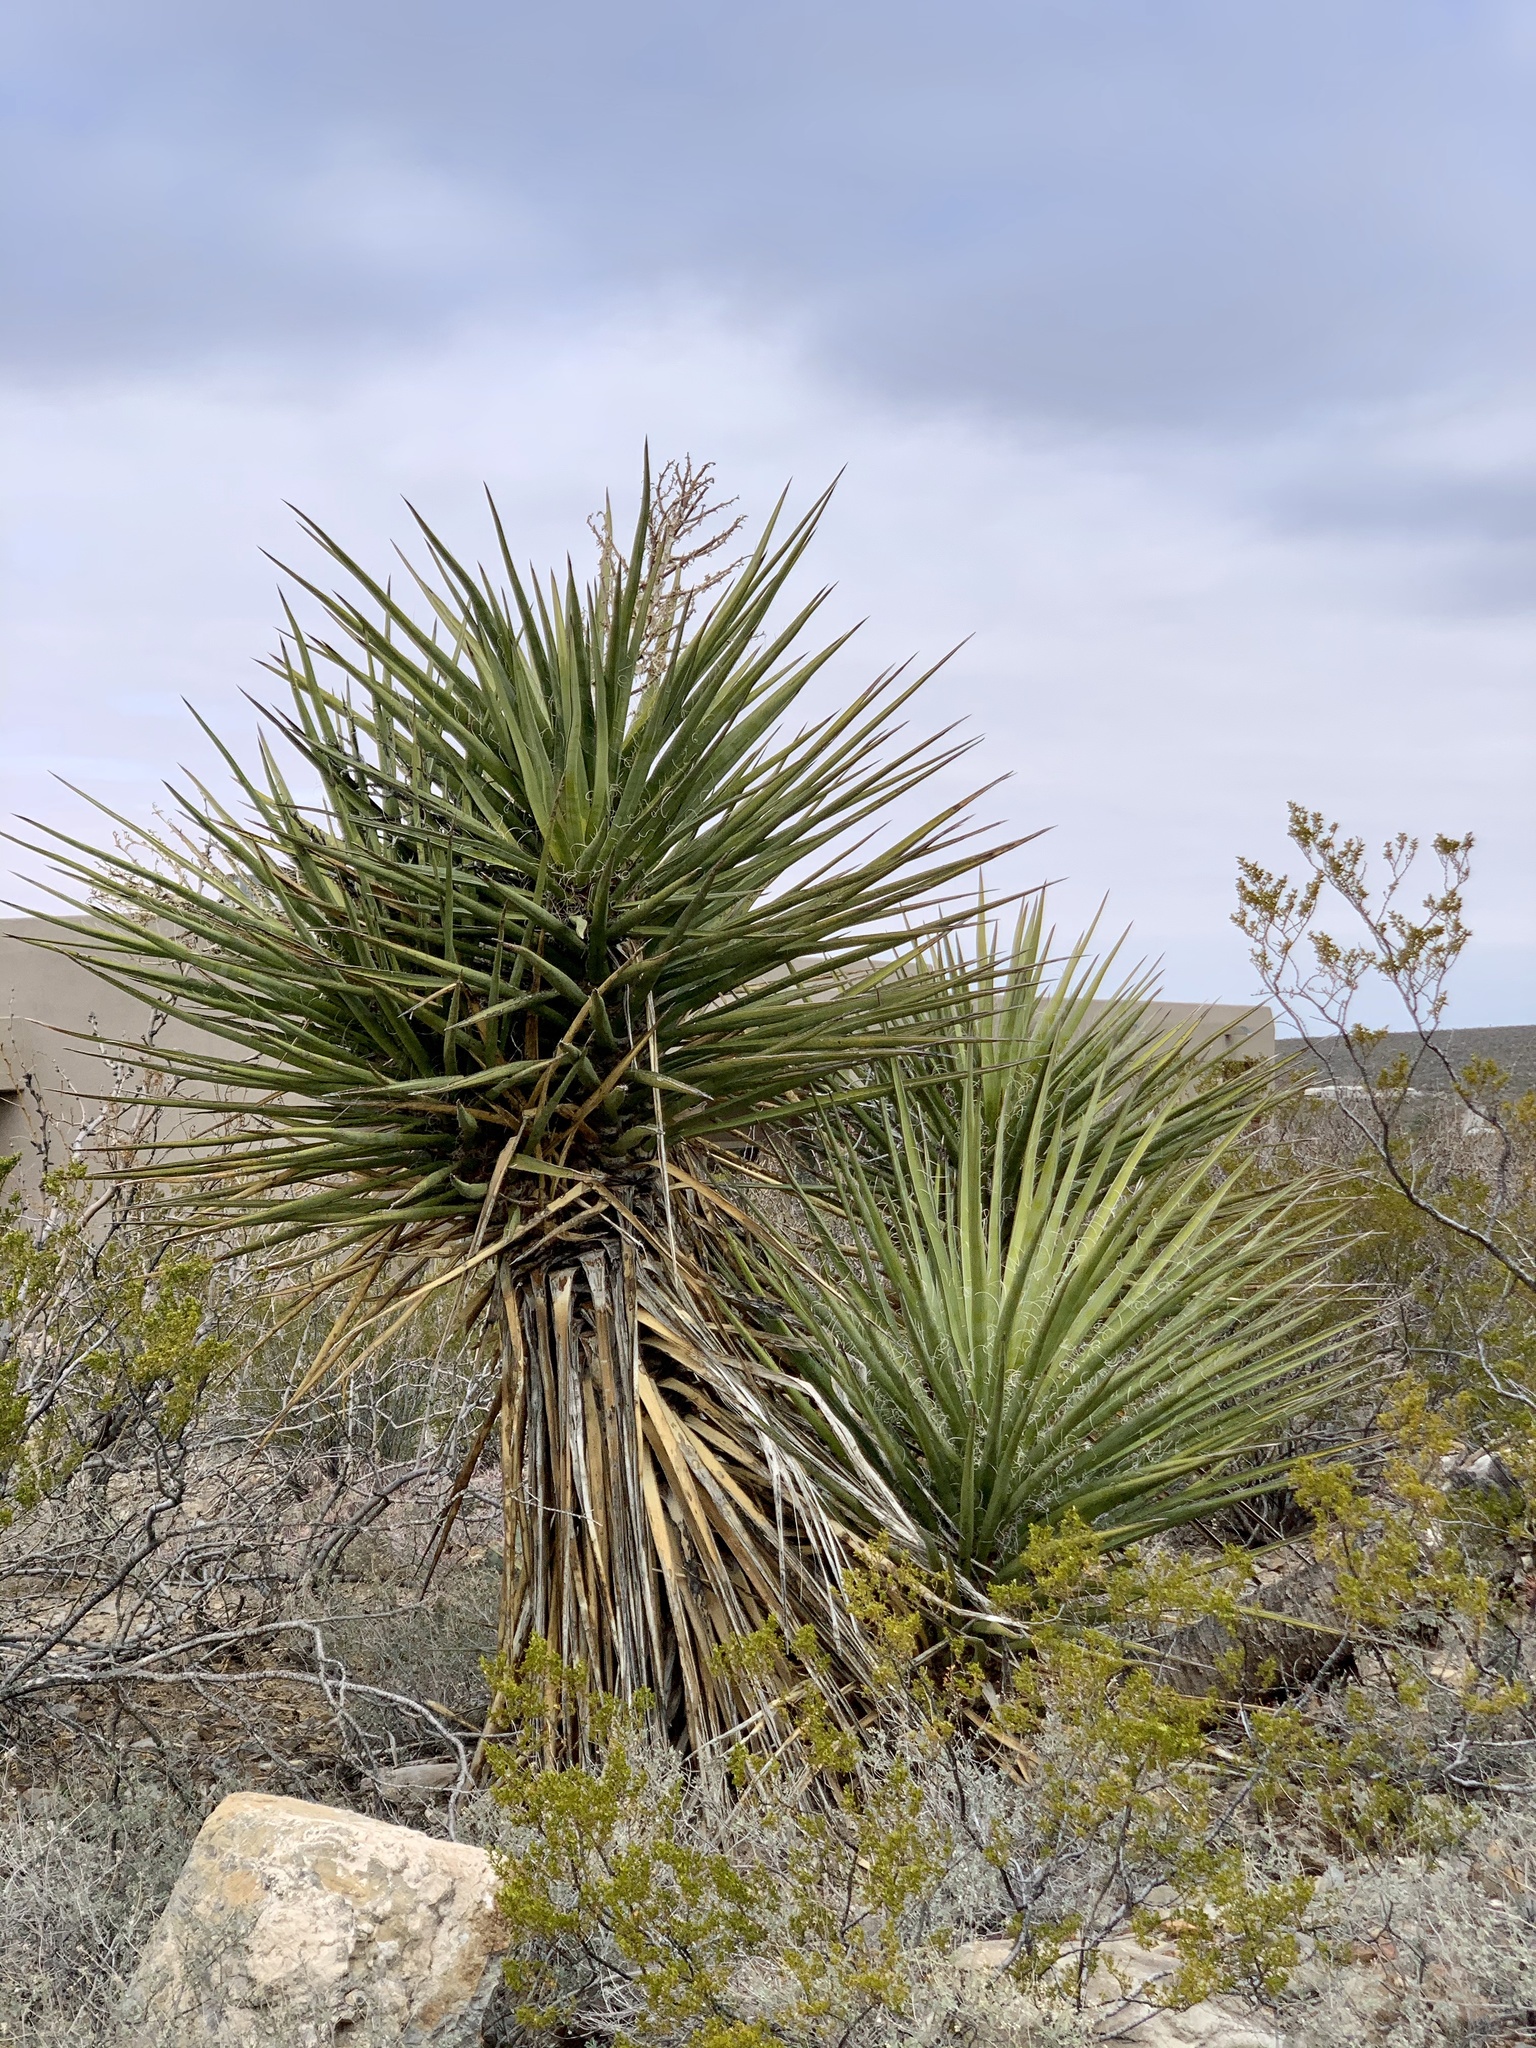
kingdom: Plantae
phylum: Tracheophyta
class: Liliopsida
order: Asparagales
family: Asparagaceae
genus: Yucca
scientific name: Yucca treculiana
